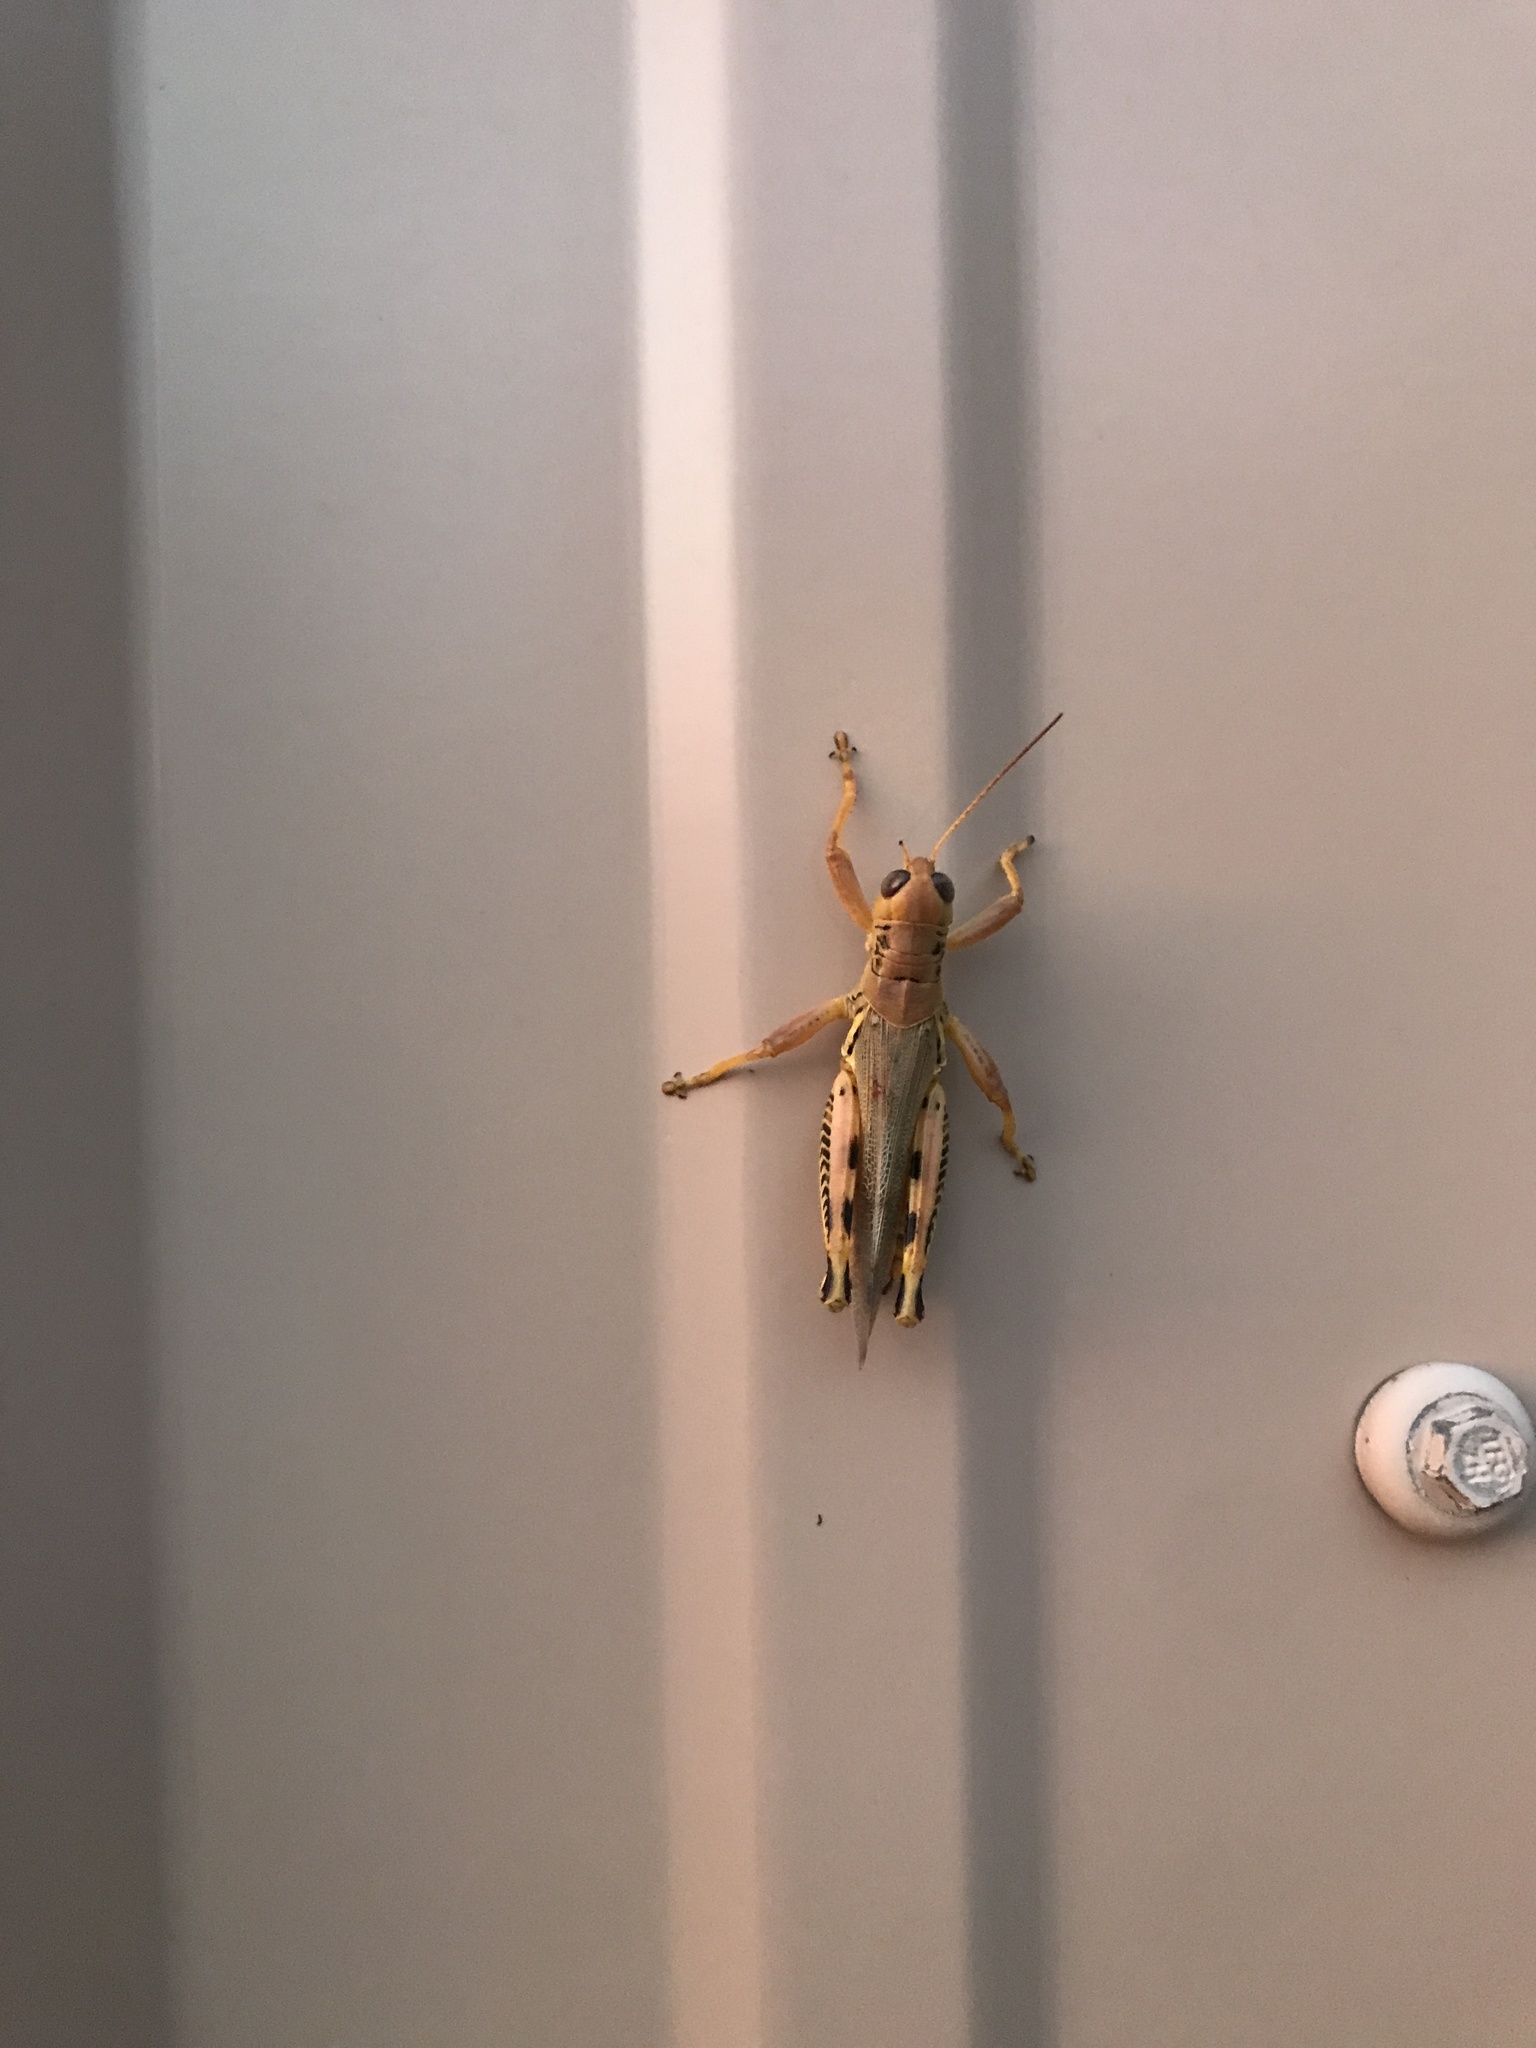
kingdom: Animalia
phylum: Arthropoda
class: Insecta
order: Orthoptera
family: Acrididae
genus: Melanoplus
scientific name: Melanoplus differentialis
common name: Differential grasshopper
